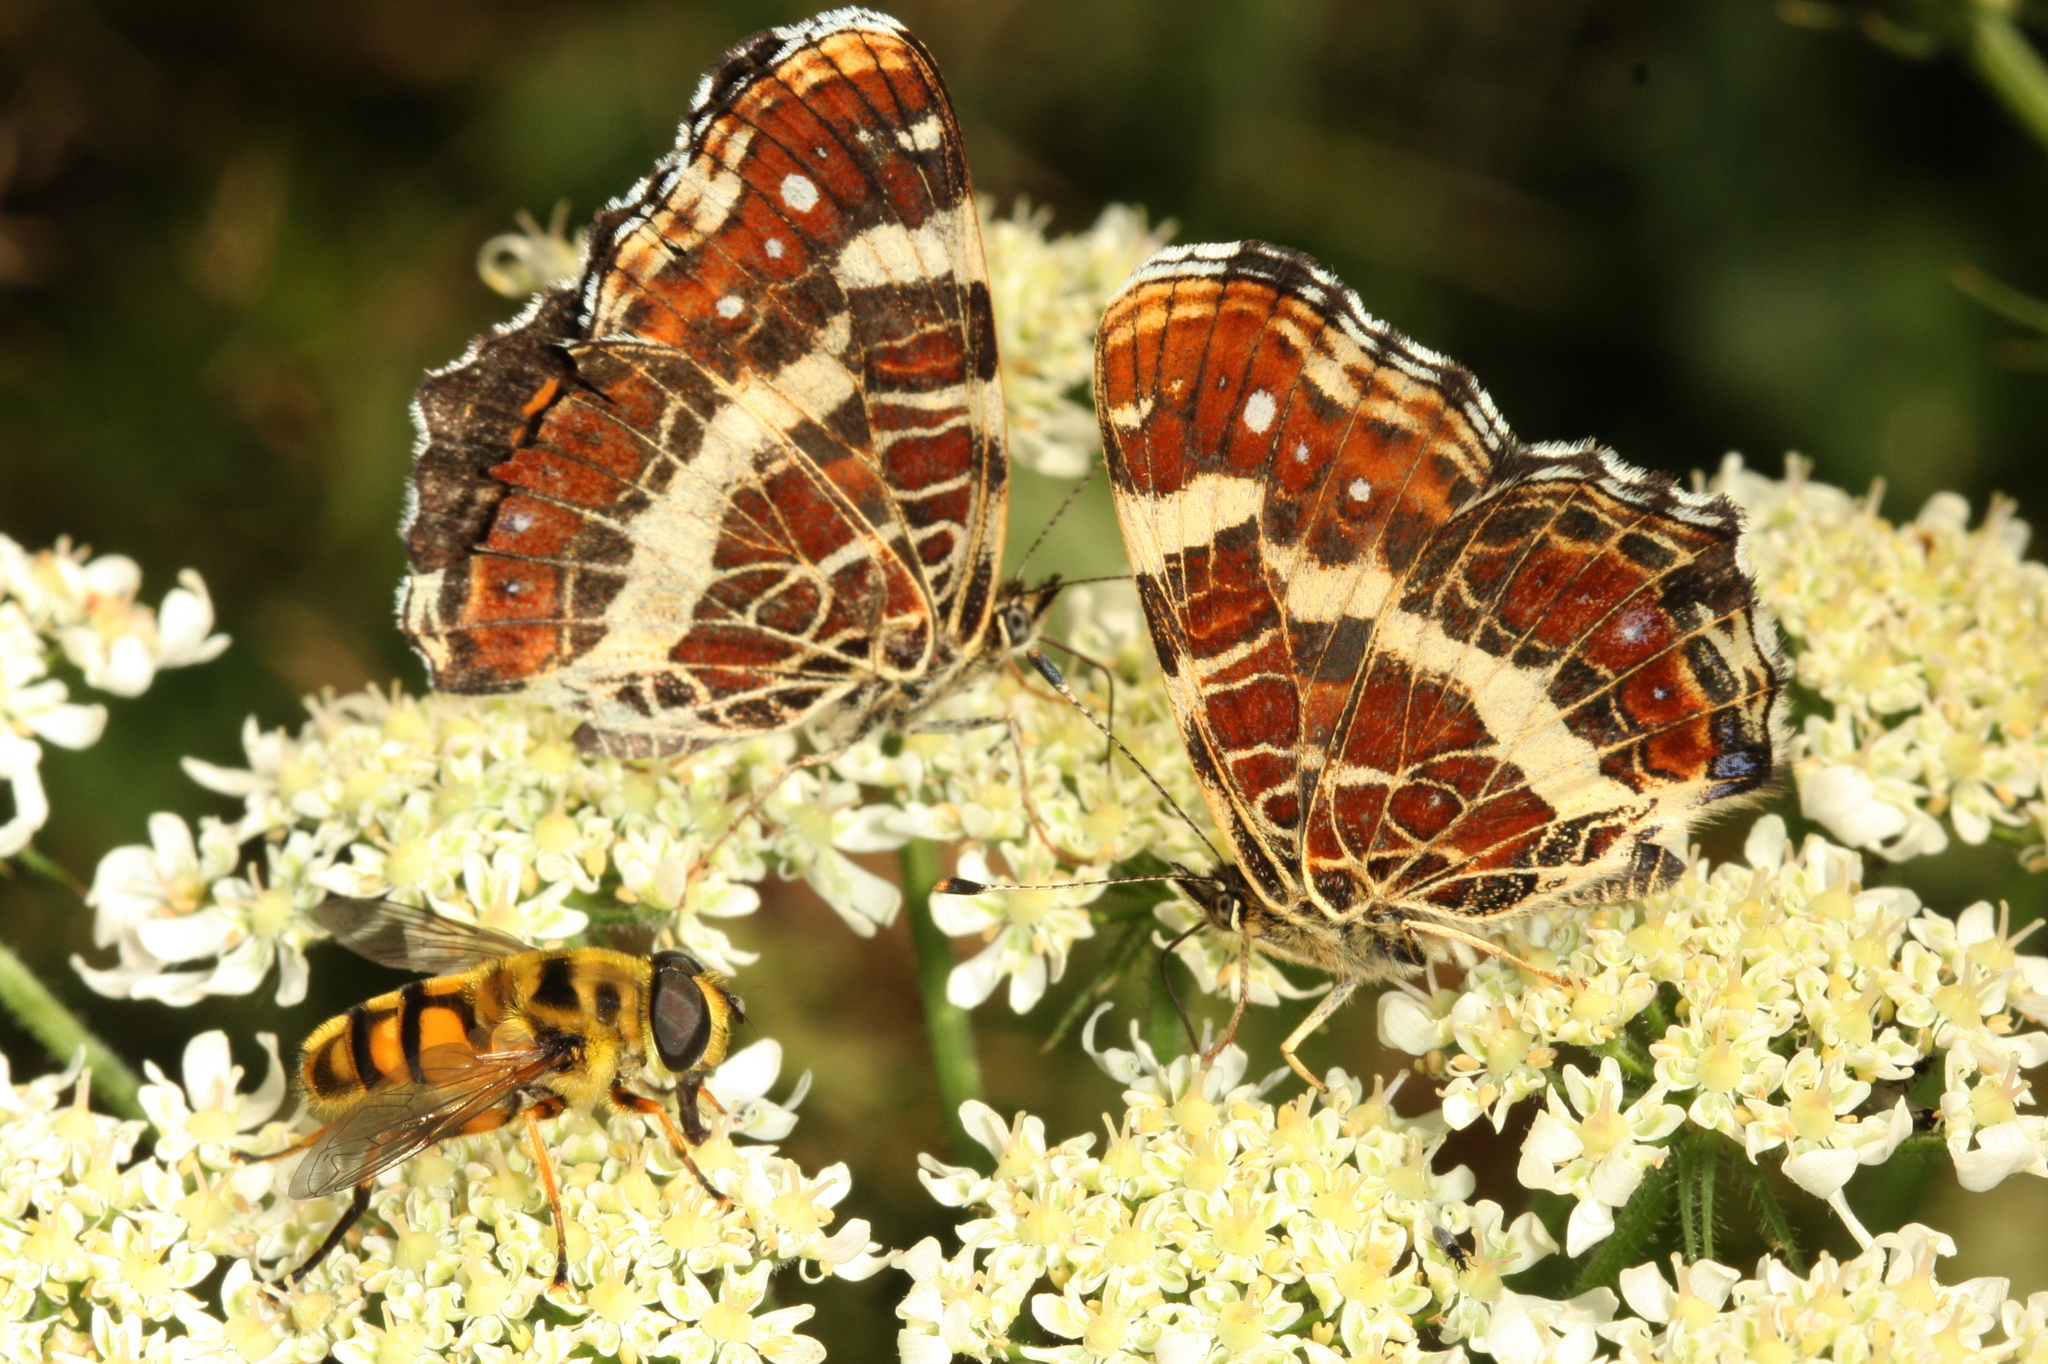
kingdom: Animalia
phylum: Arthropoda
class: Insecta
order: Lepidoptera
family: Nymphalidae
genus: Araschnia
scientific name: Araschnia levana
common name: Map butterfly
